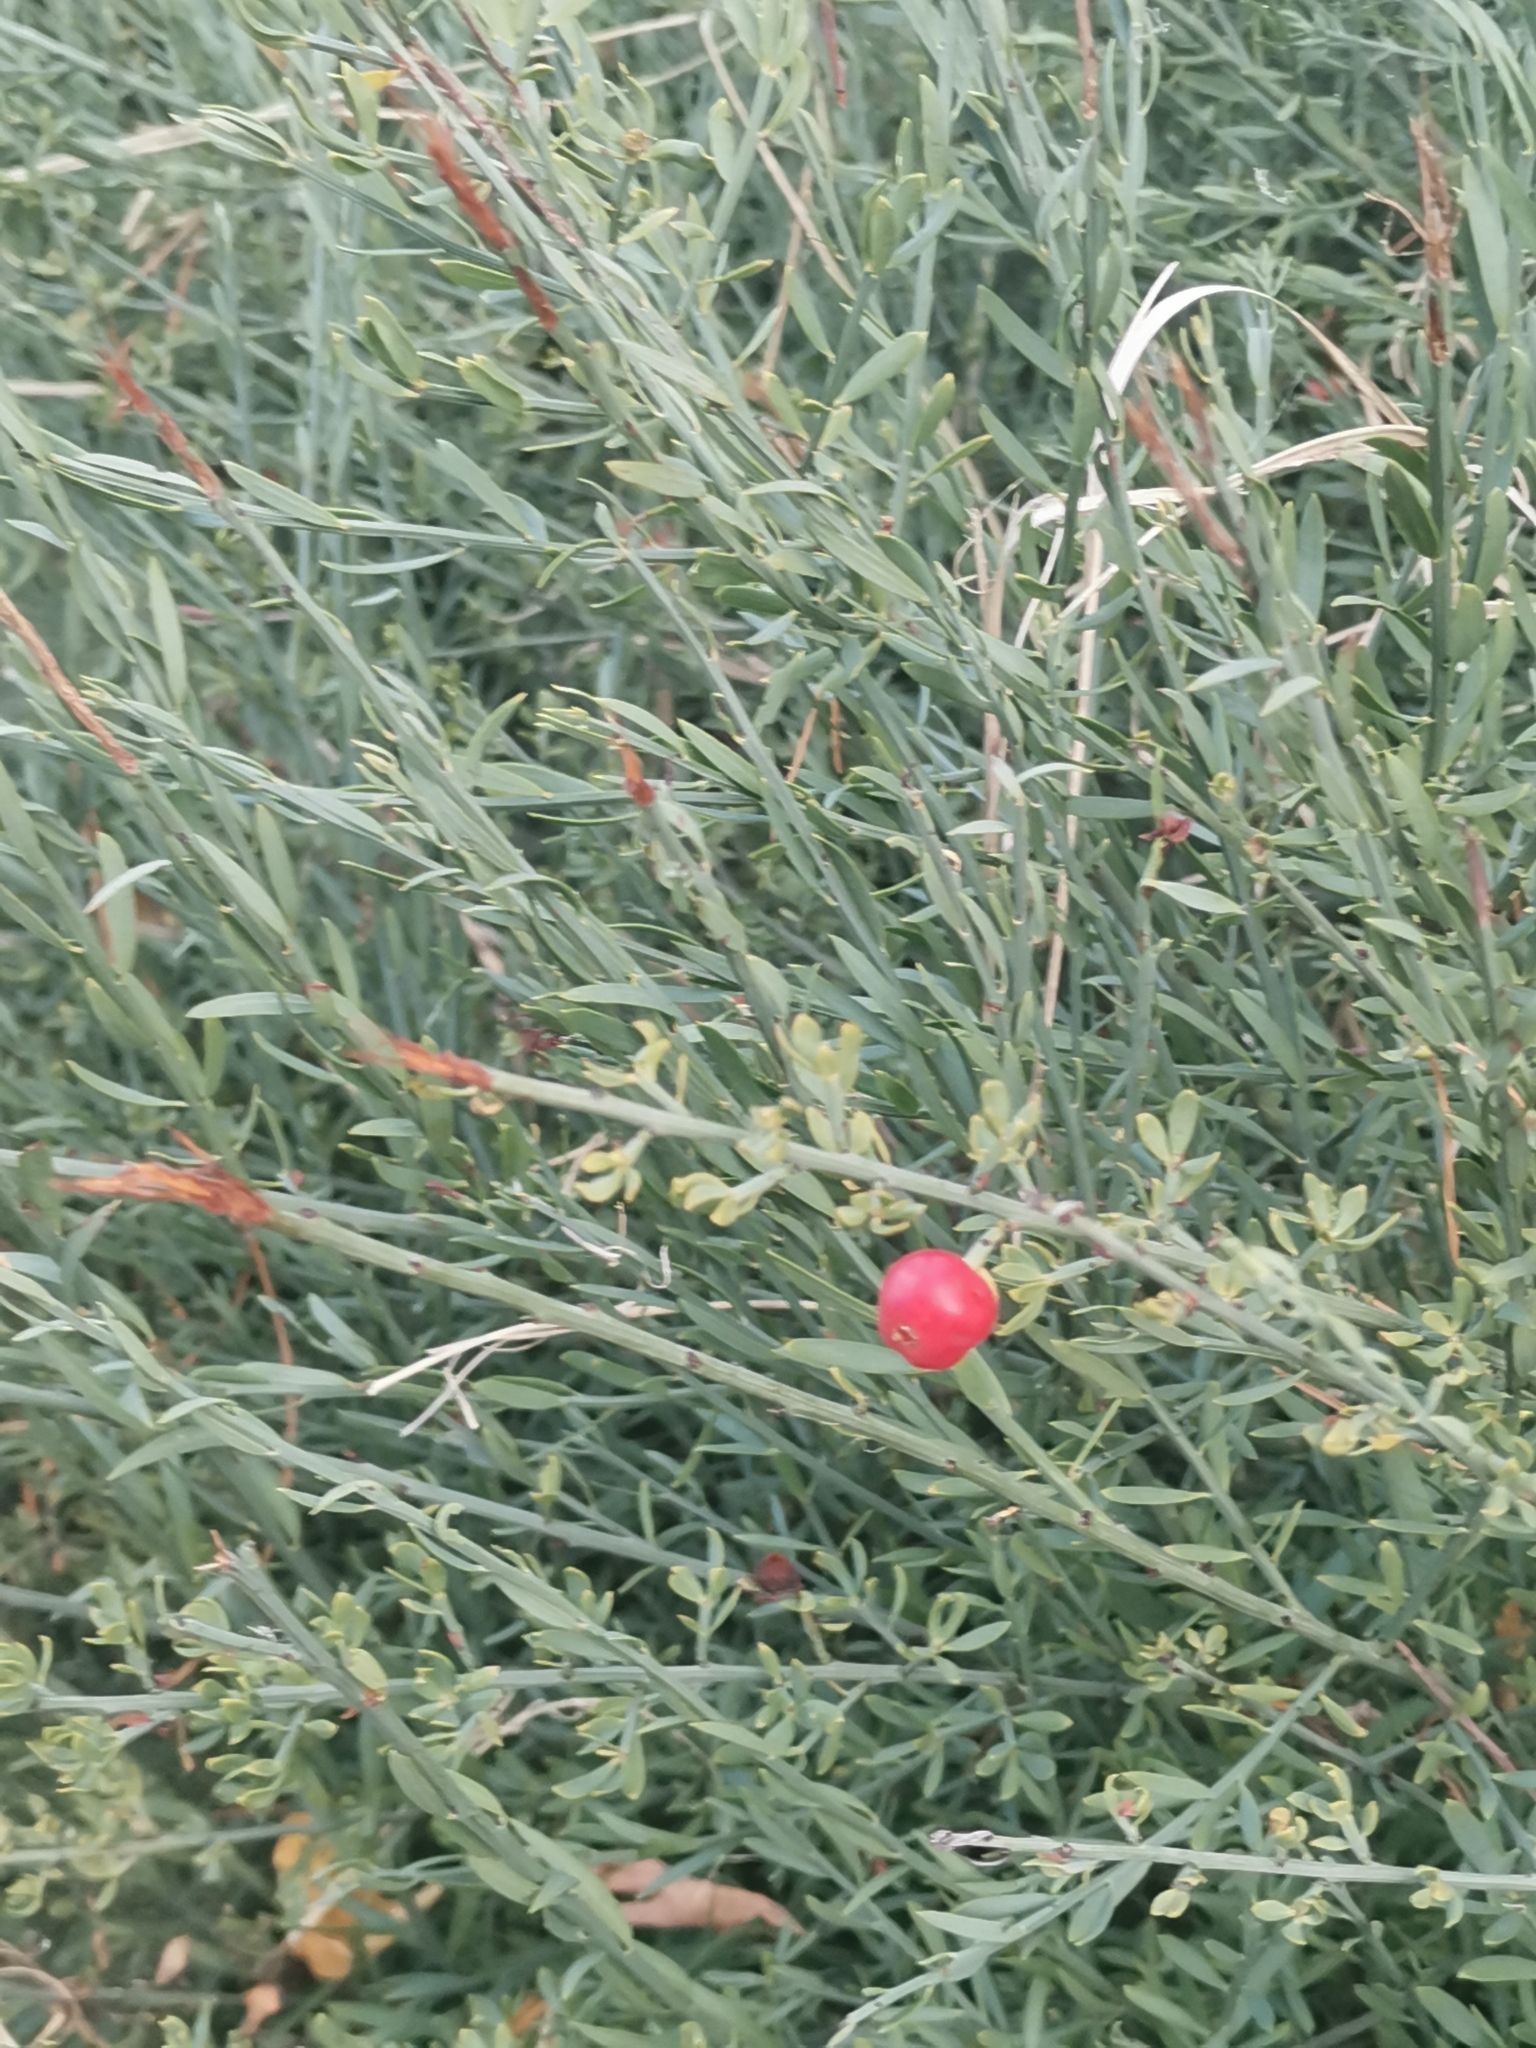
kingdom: Plantae
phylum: Tracheophyta
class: Magnoliopsida
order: Santalales
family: Santalaceae
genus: Osyris
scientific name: Osyris alba
